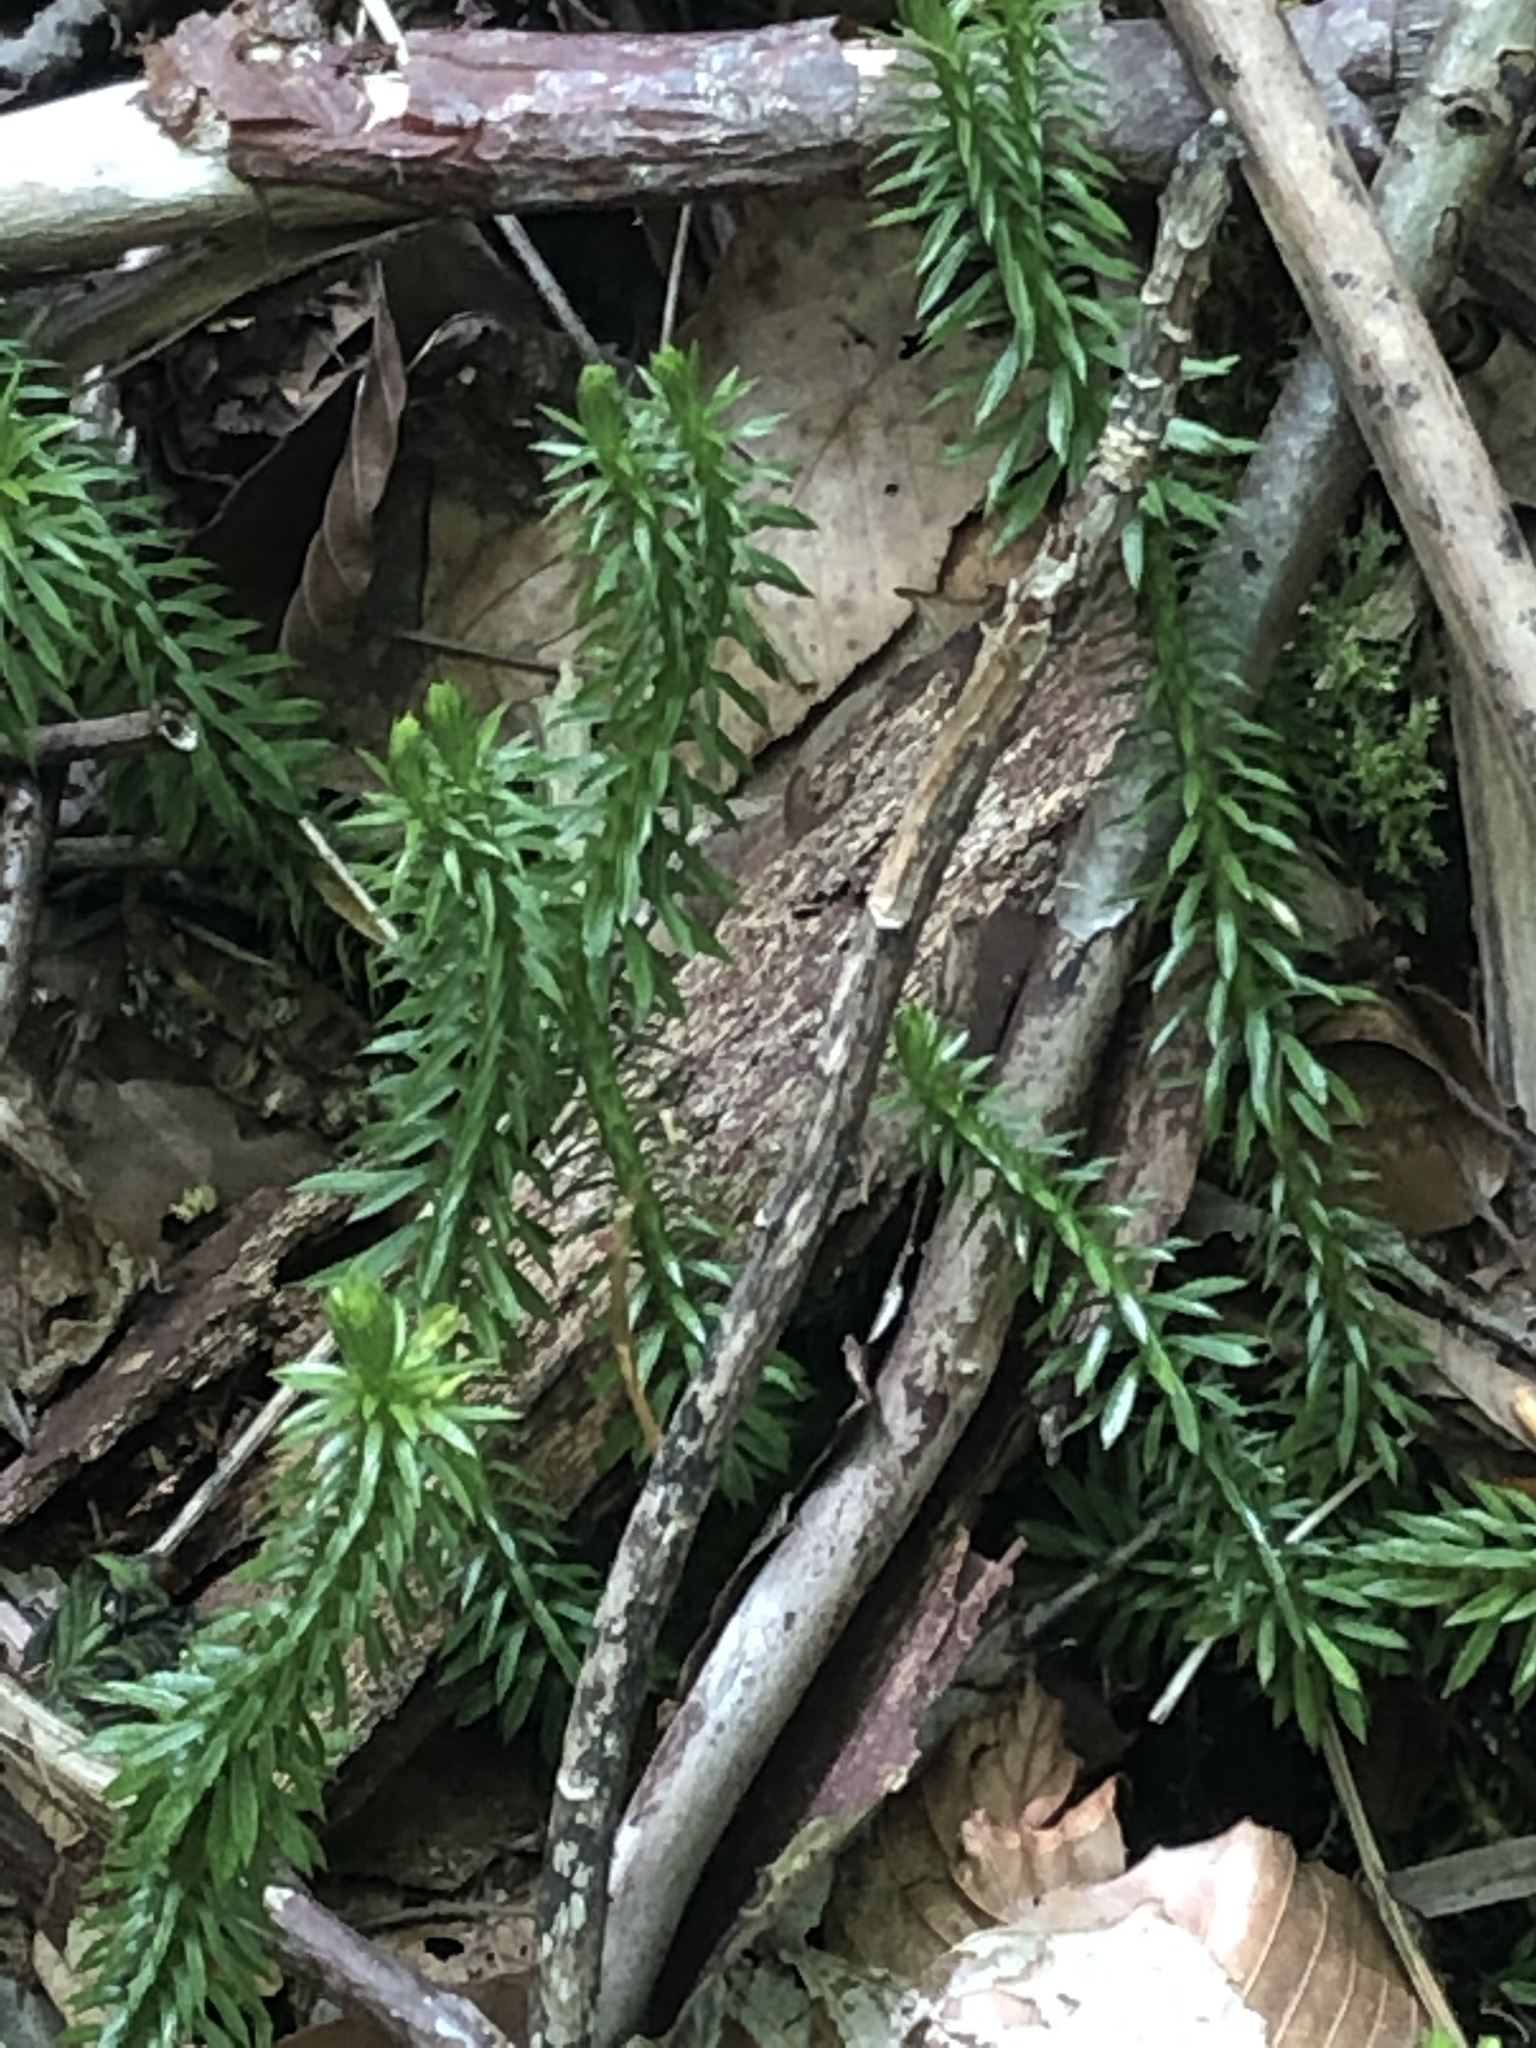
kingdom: Plantae
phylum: Tracheophyta
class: Lycopodiopsida
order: Lycopodiales
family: Lycopodiaceae
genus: Huperzia
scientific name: Huperzia lucidula
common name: Shining clubmoss
